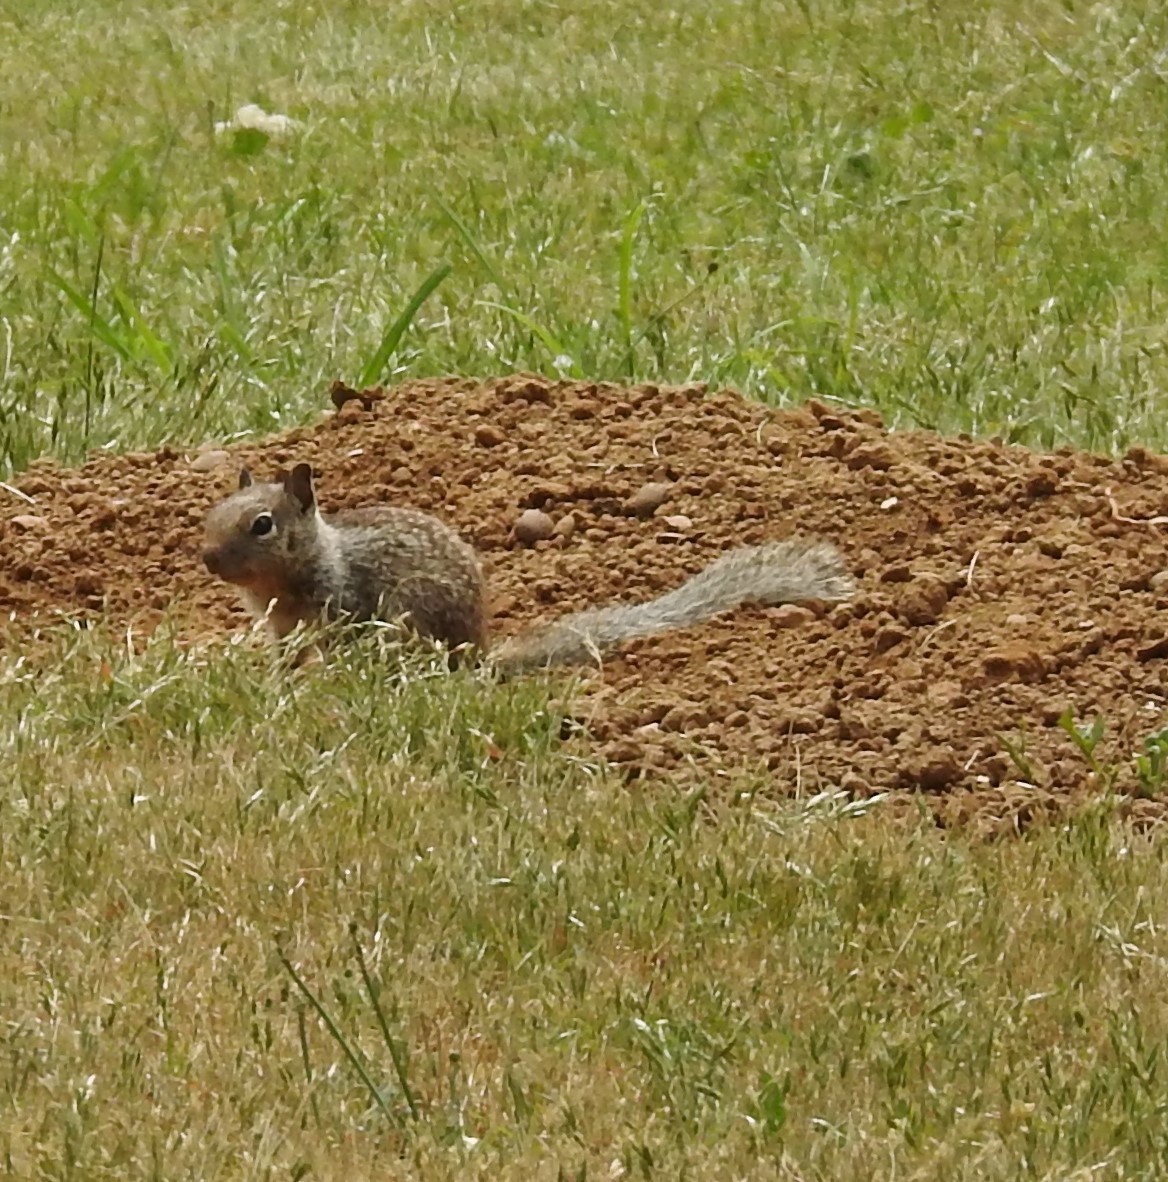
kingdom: Animalia
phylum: Chordata
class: Mammalia
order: Rodentia
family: Sciuridae
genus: Otospermophilus
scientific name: Otospermophilus beecheyi
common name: California ground squirrel
